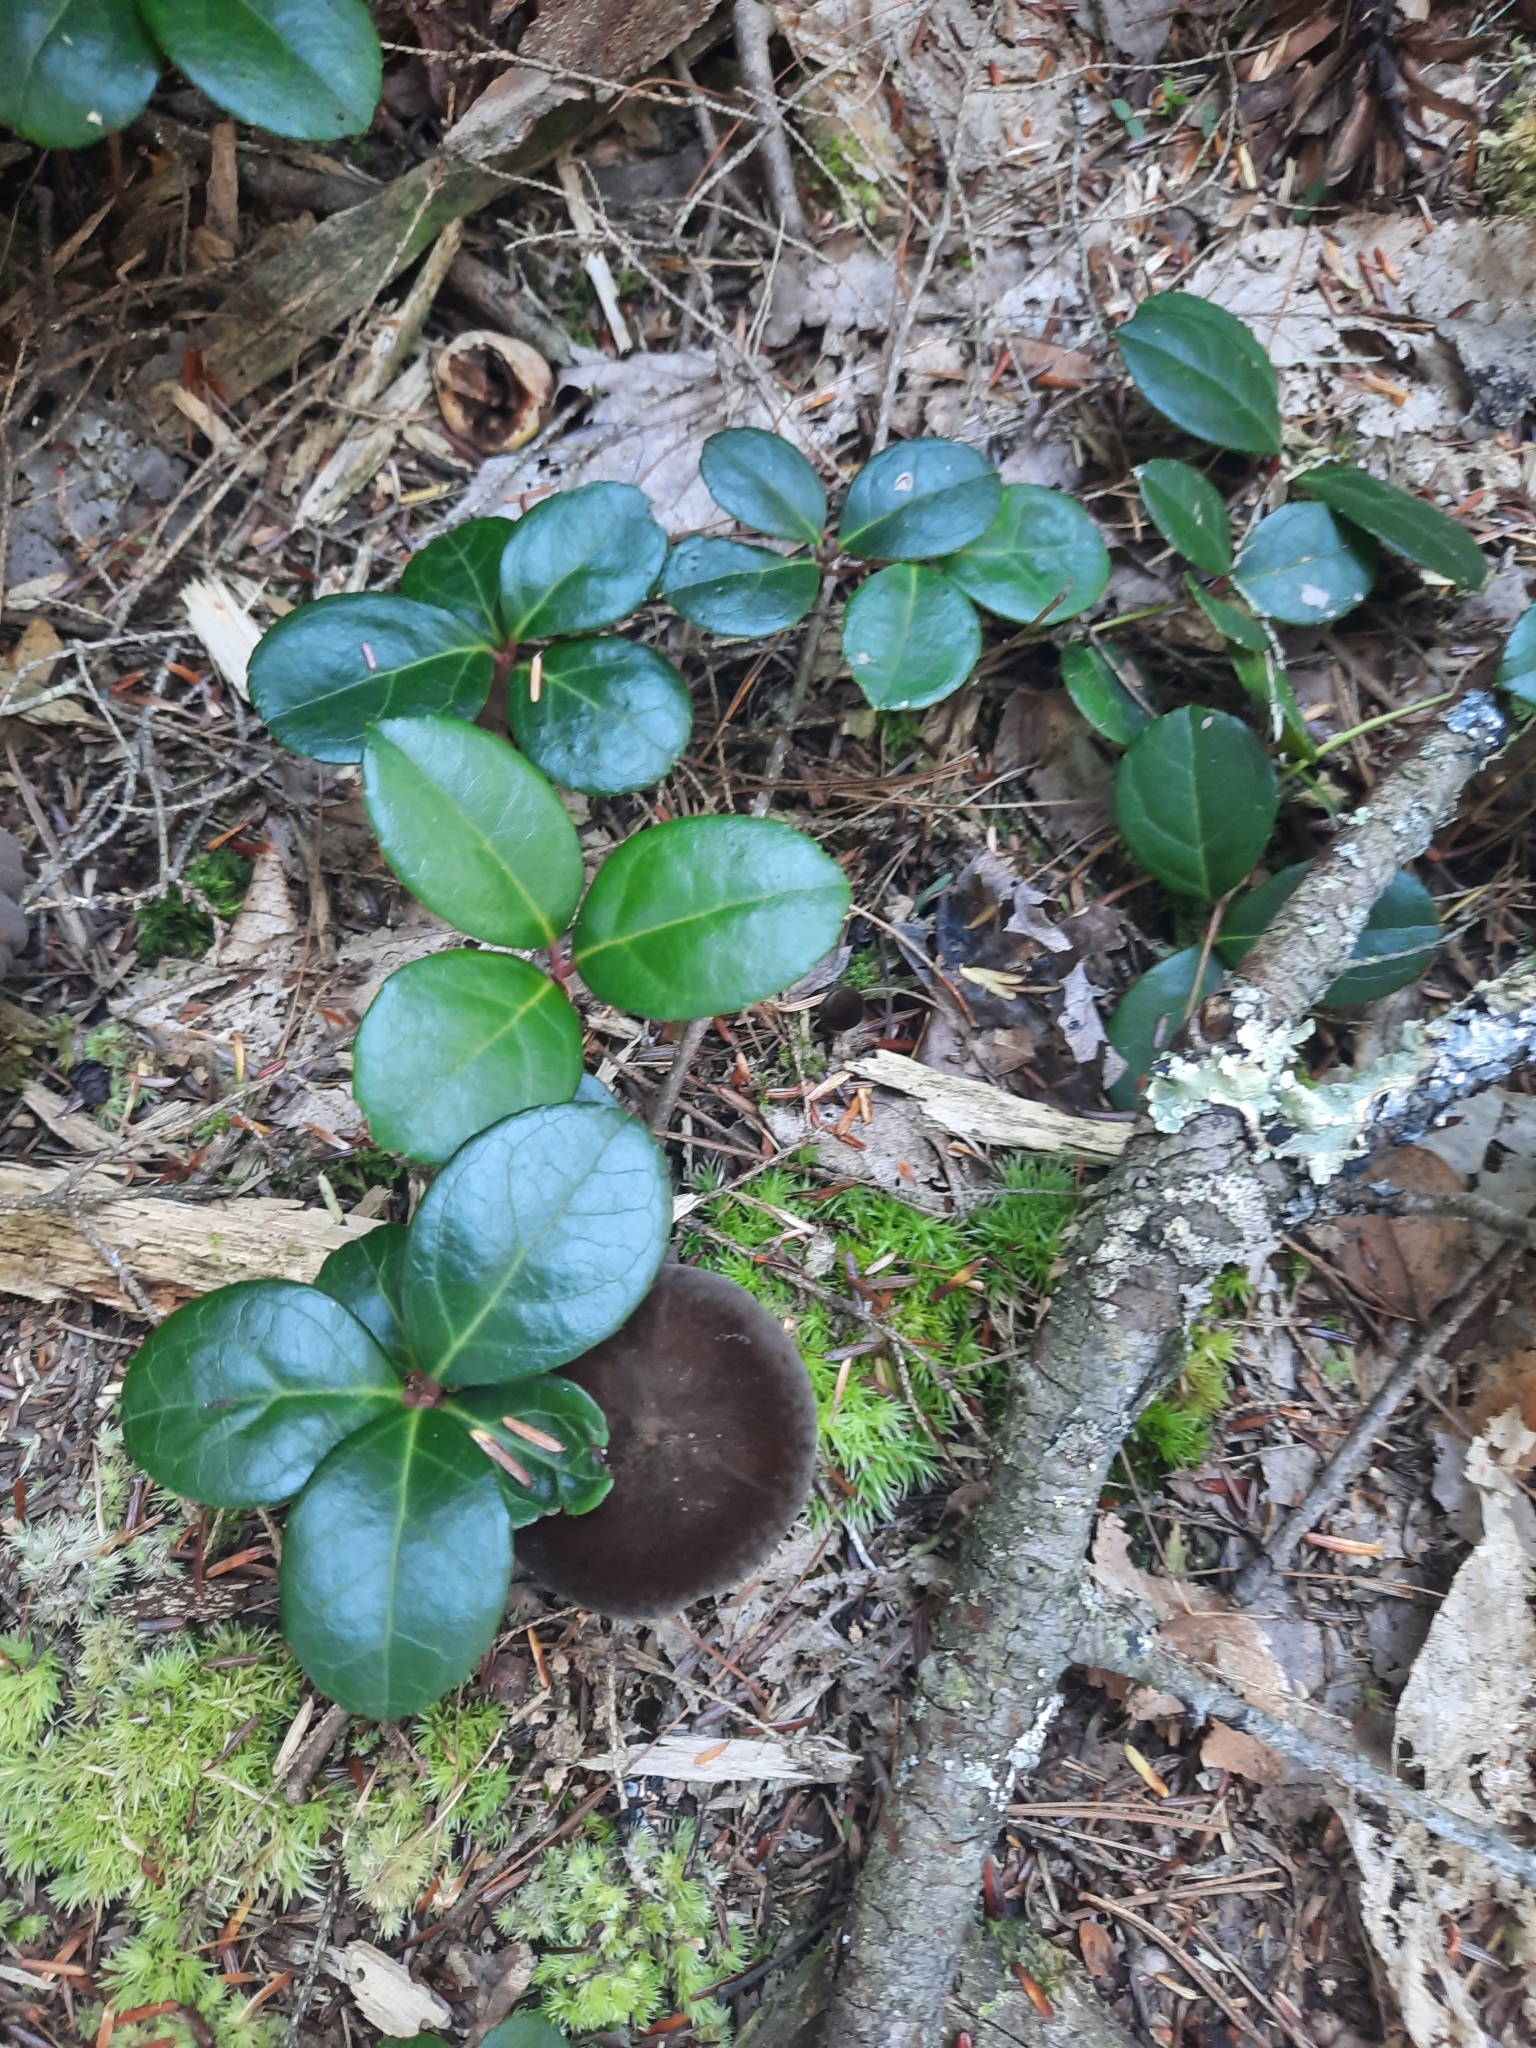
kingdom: Plantae
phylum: Tracheophyta
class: Magnoliopsida
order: Ericales
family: Ericaceae
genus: Gaultheria
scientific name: Gaultheria procumbens
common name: Checkerberry
